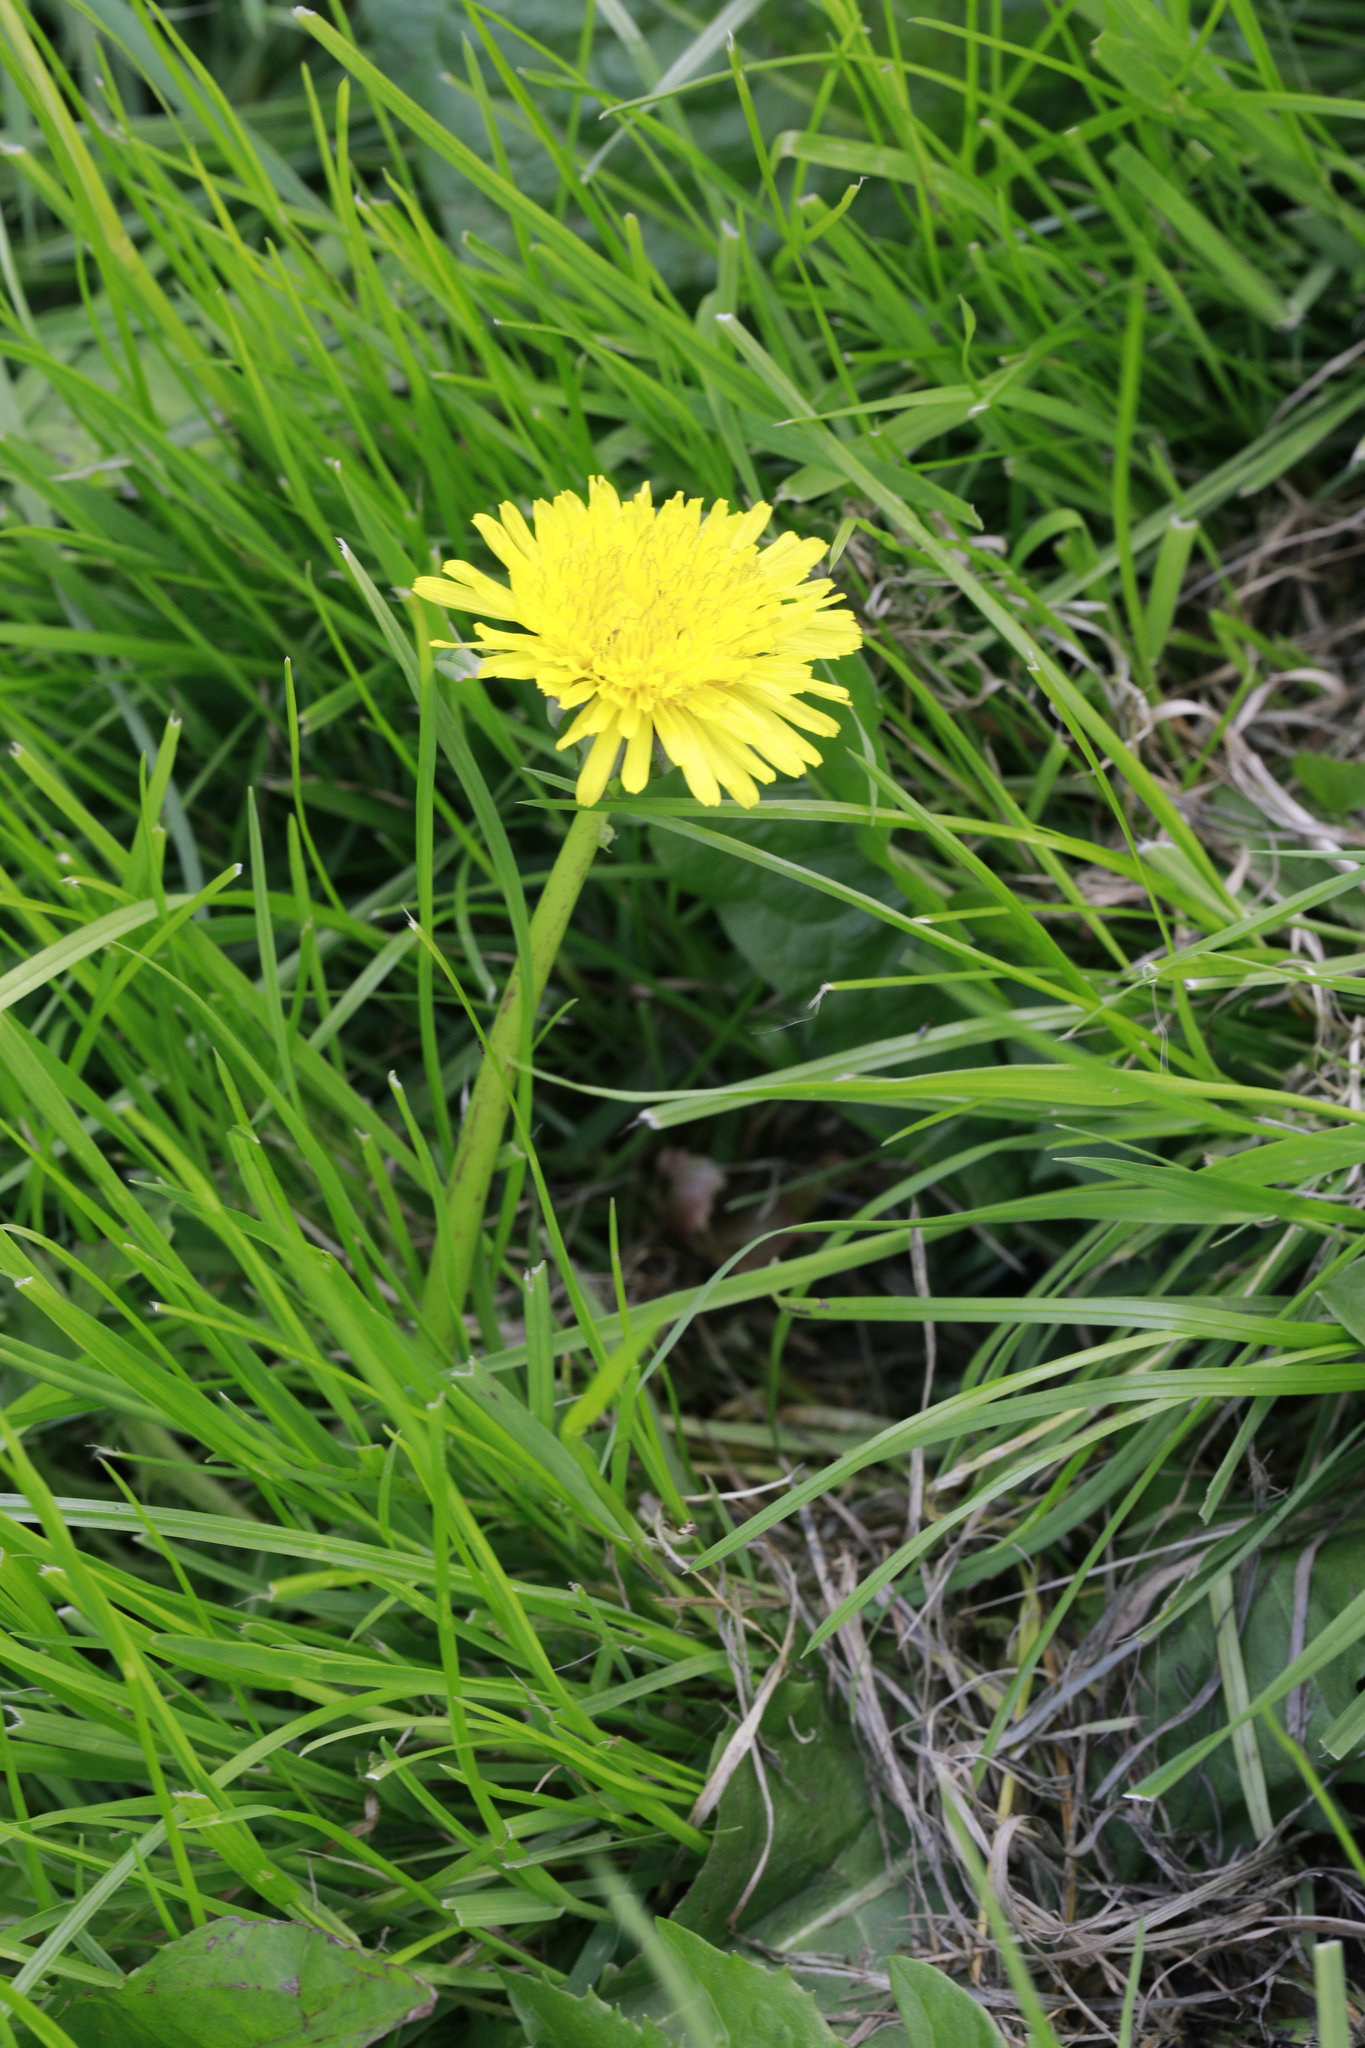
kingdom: Plantae
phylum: Tracheophyta
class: Magnoliopsida
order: Asterales
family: Asteraceae
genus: Taraxacum
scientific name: Taraxacum officinale
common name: Common dandelion
